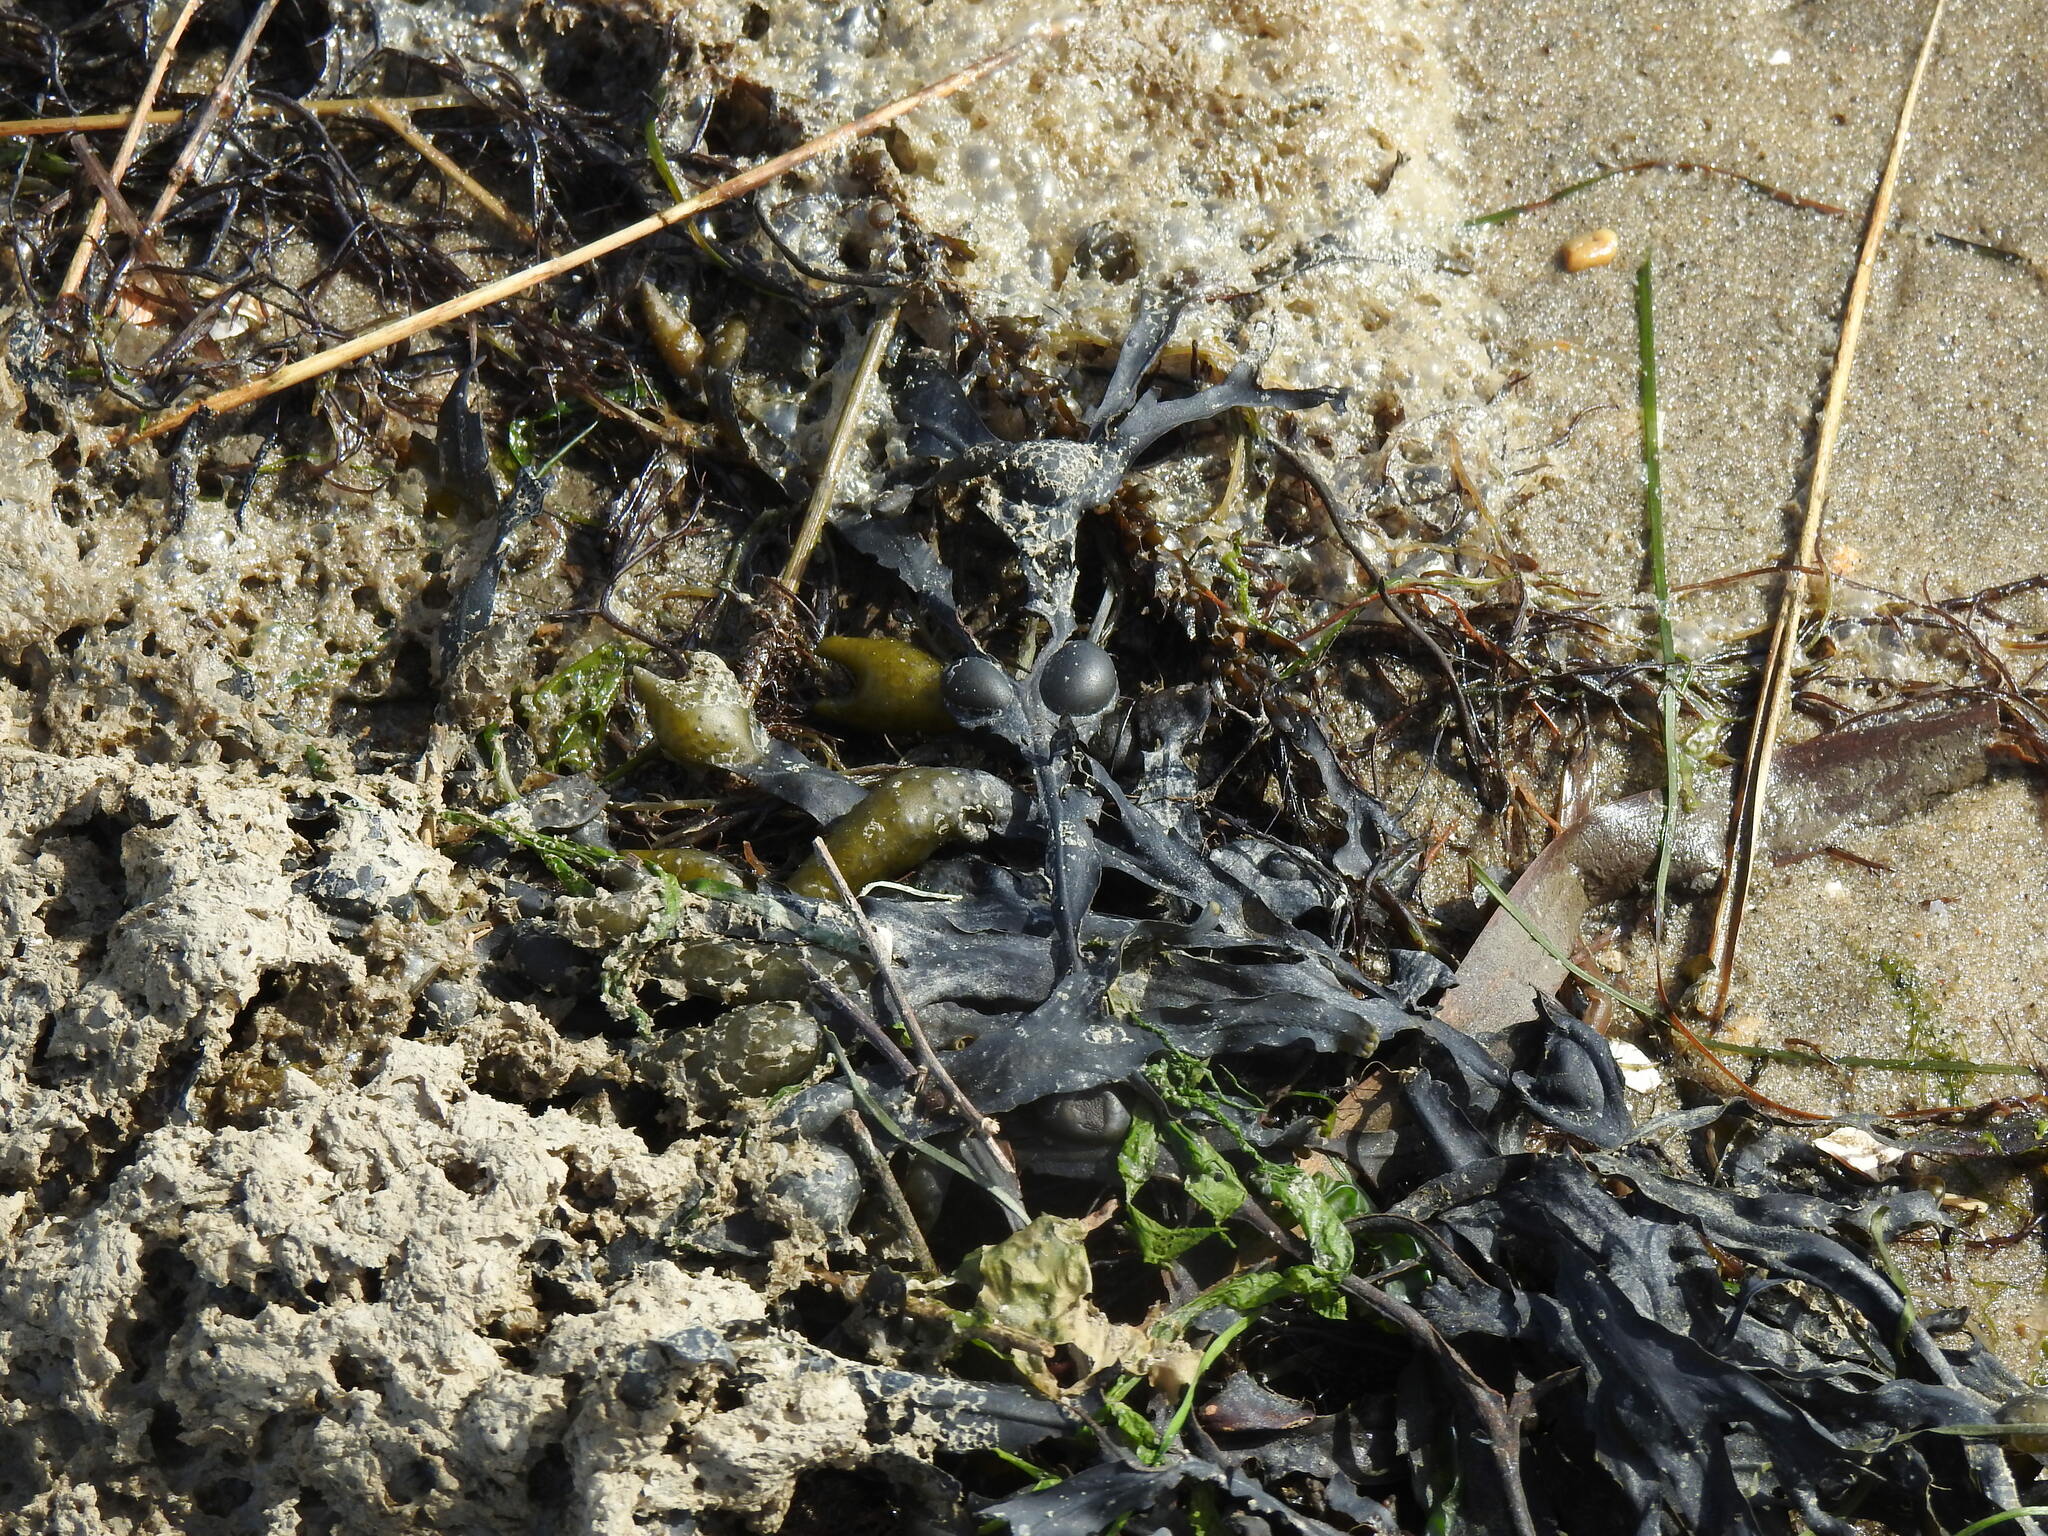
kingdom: Chromista
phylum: Ochrophyta
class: Phaeophyceae
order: Fucales
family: Fucaceae
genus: Fucus
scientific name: Fucus vesiculosus
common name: Bladder wrack
